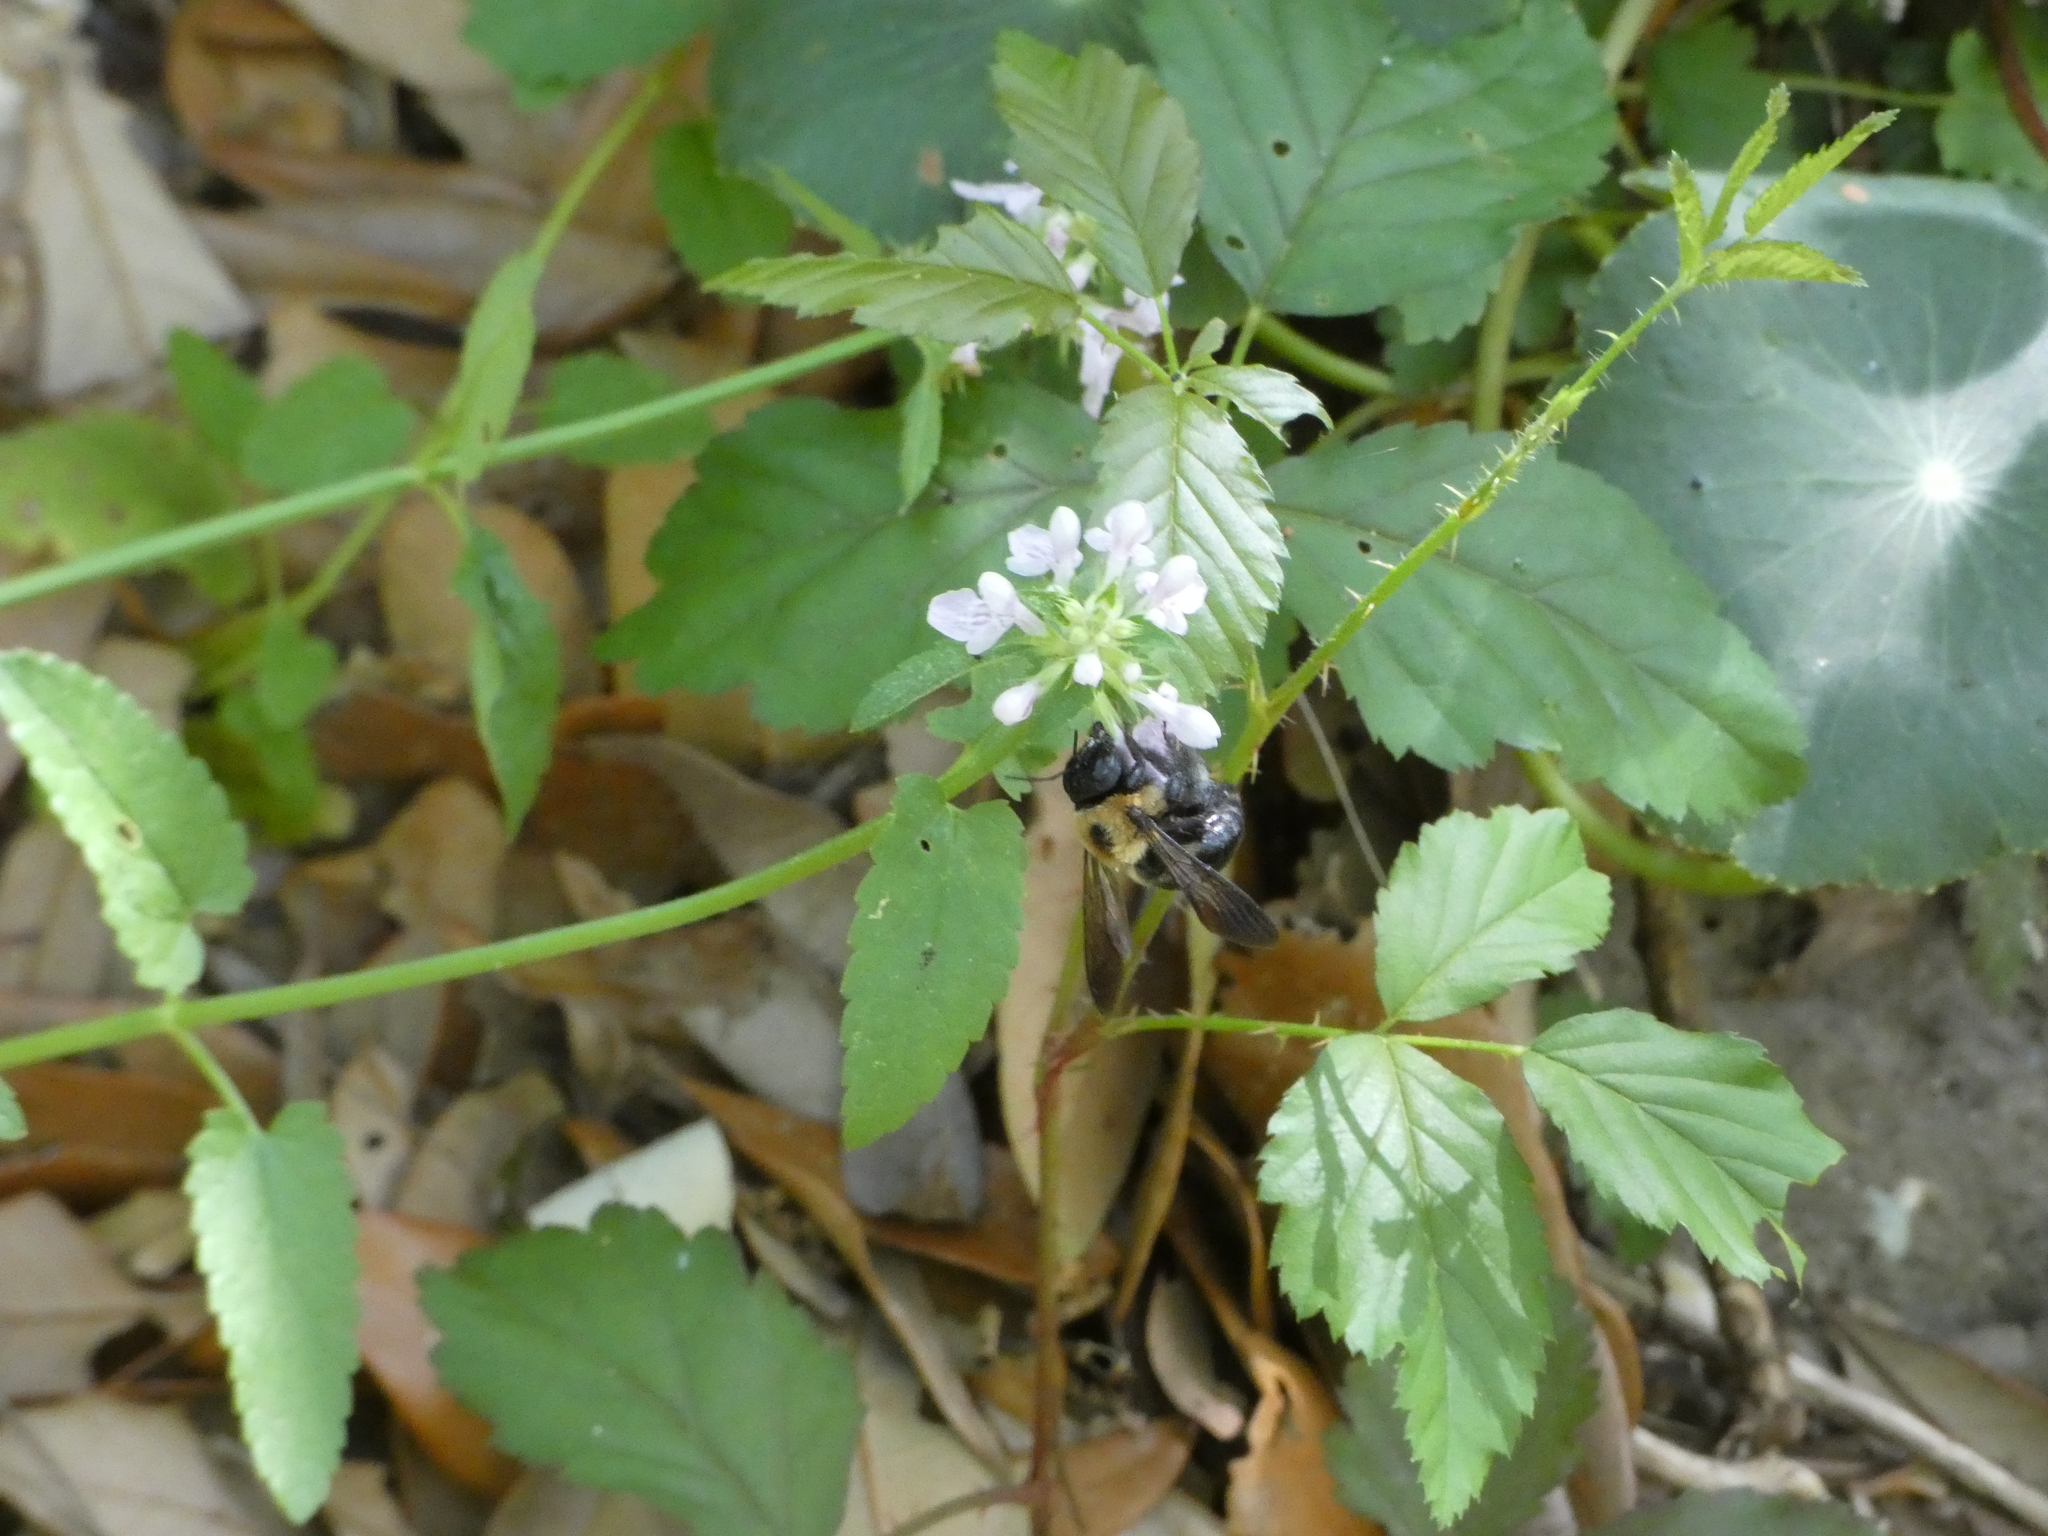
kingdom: Animalia
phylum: Arthropoda
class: Insecta
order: Hymenoptera
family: Apidae
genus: Xylocopa
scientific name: Xylocopa virginica
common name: Carpenter bee
